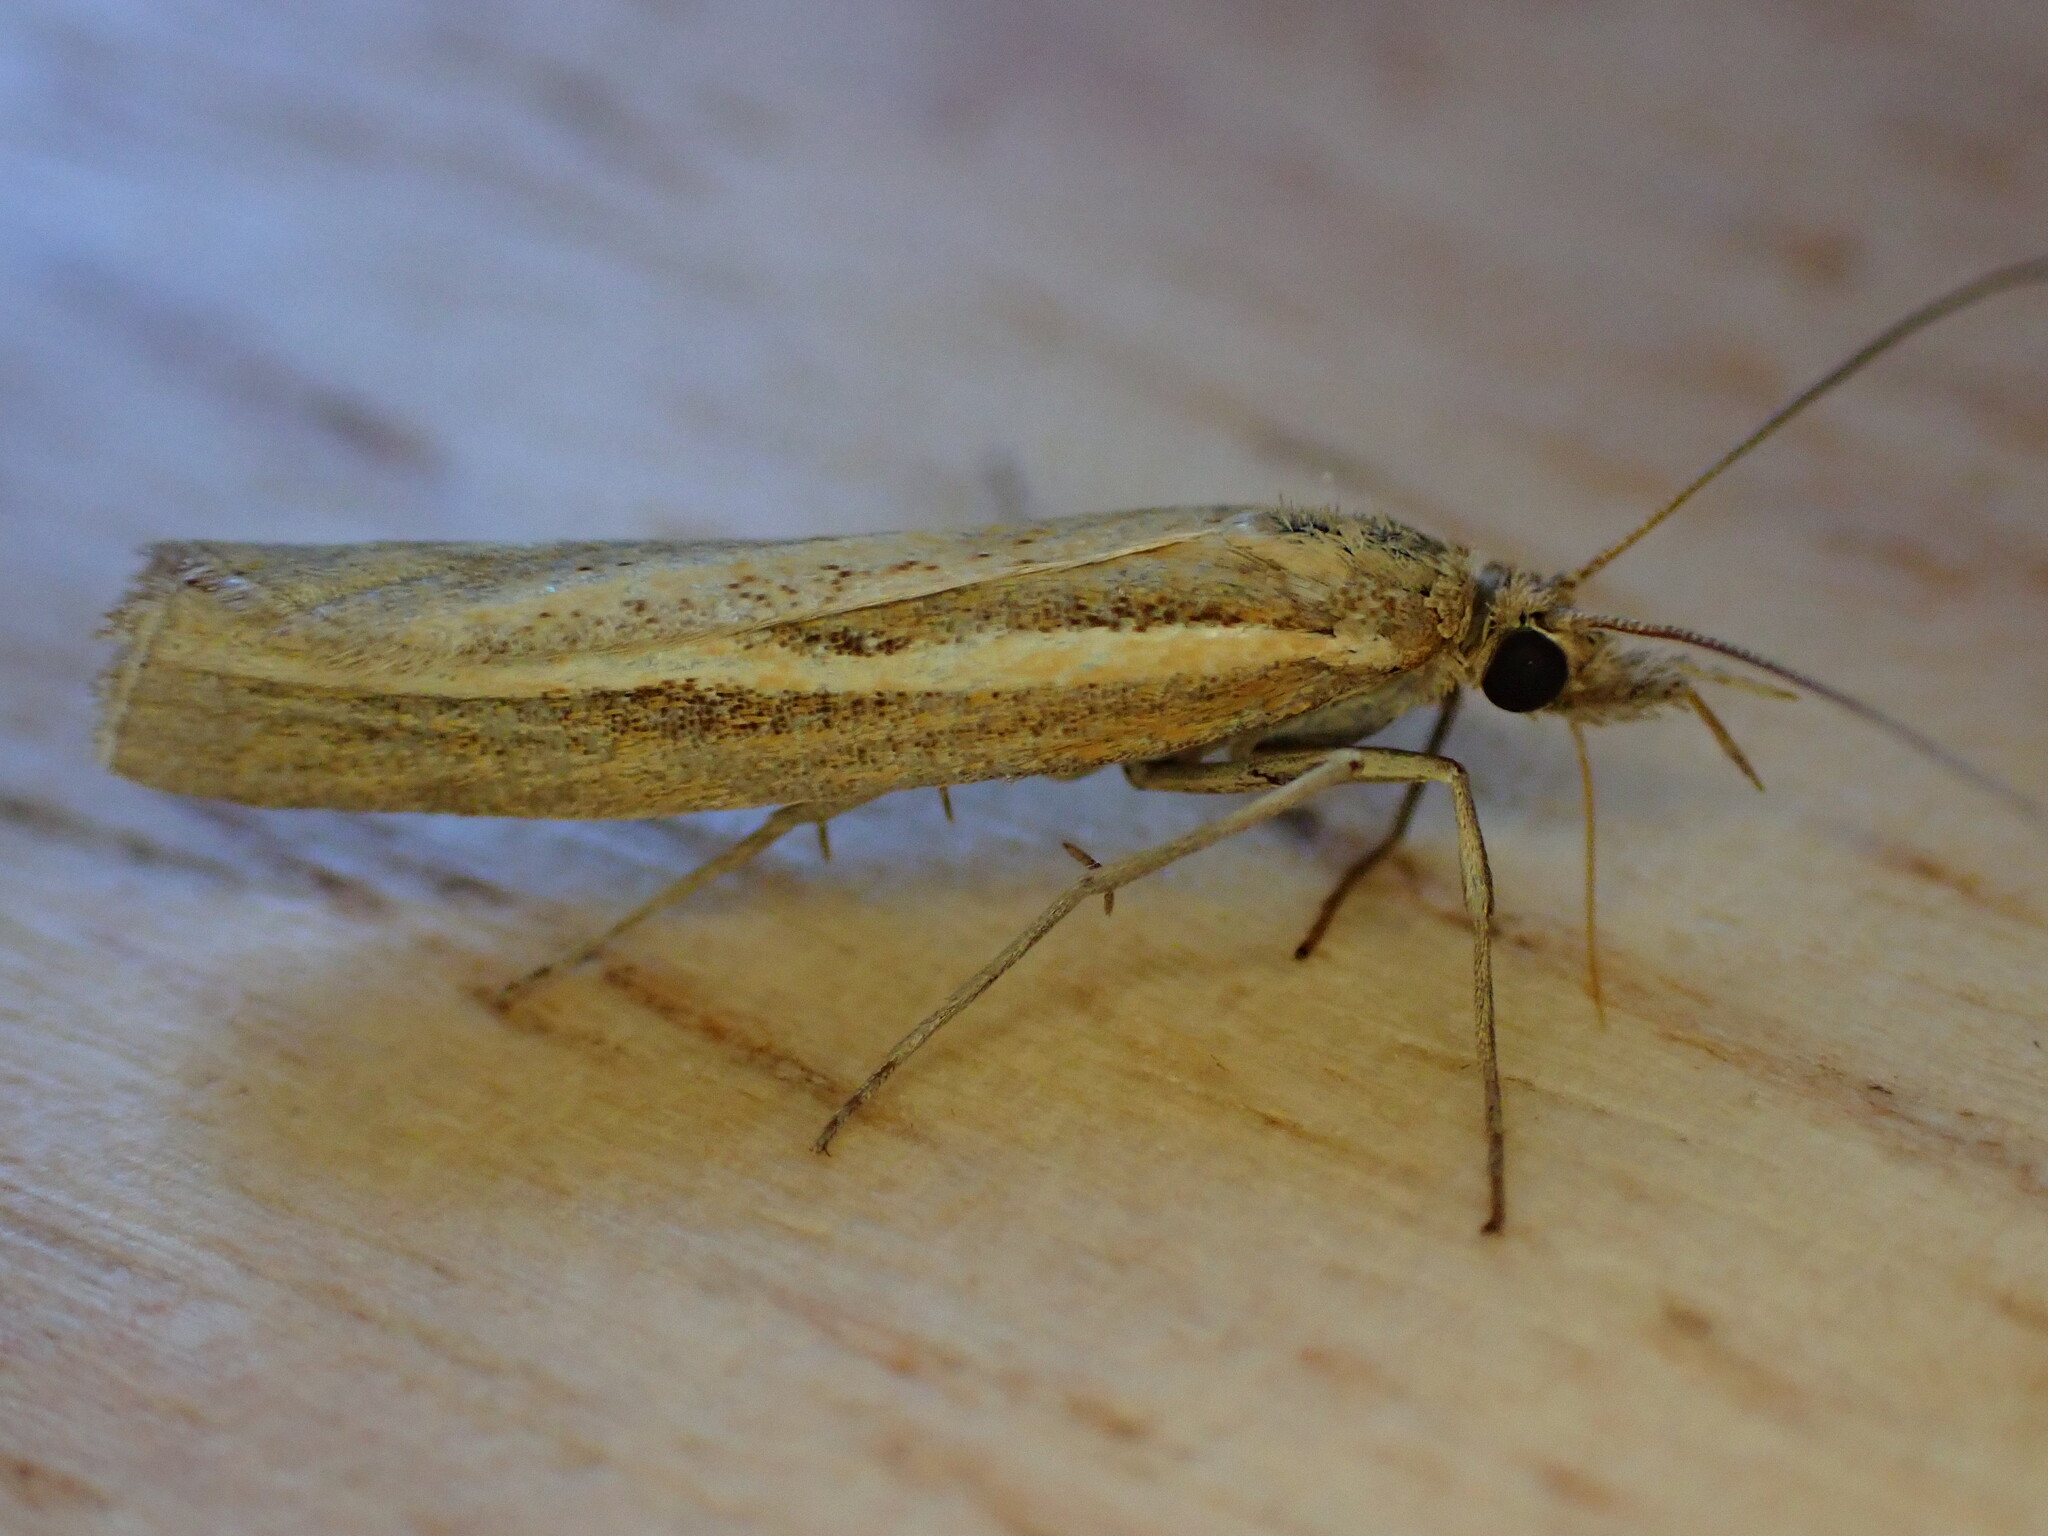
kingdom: Animalia
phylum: Arthropoda
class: Insecta
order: Lepidoptera
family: Crambidae
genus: Agriphila
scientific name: Agriphila tristellus
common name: Common grass-veneer
